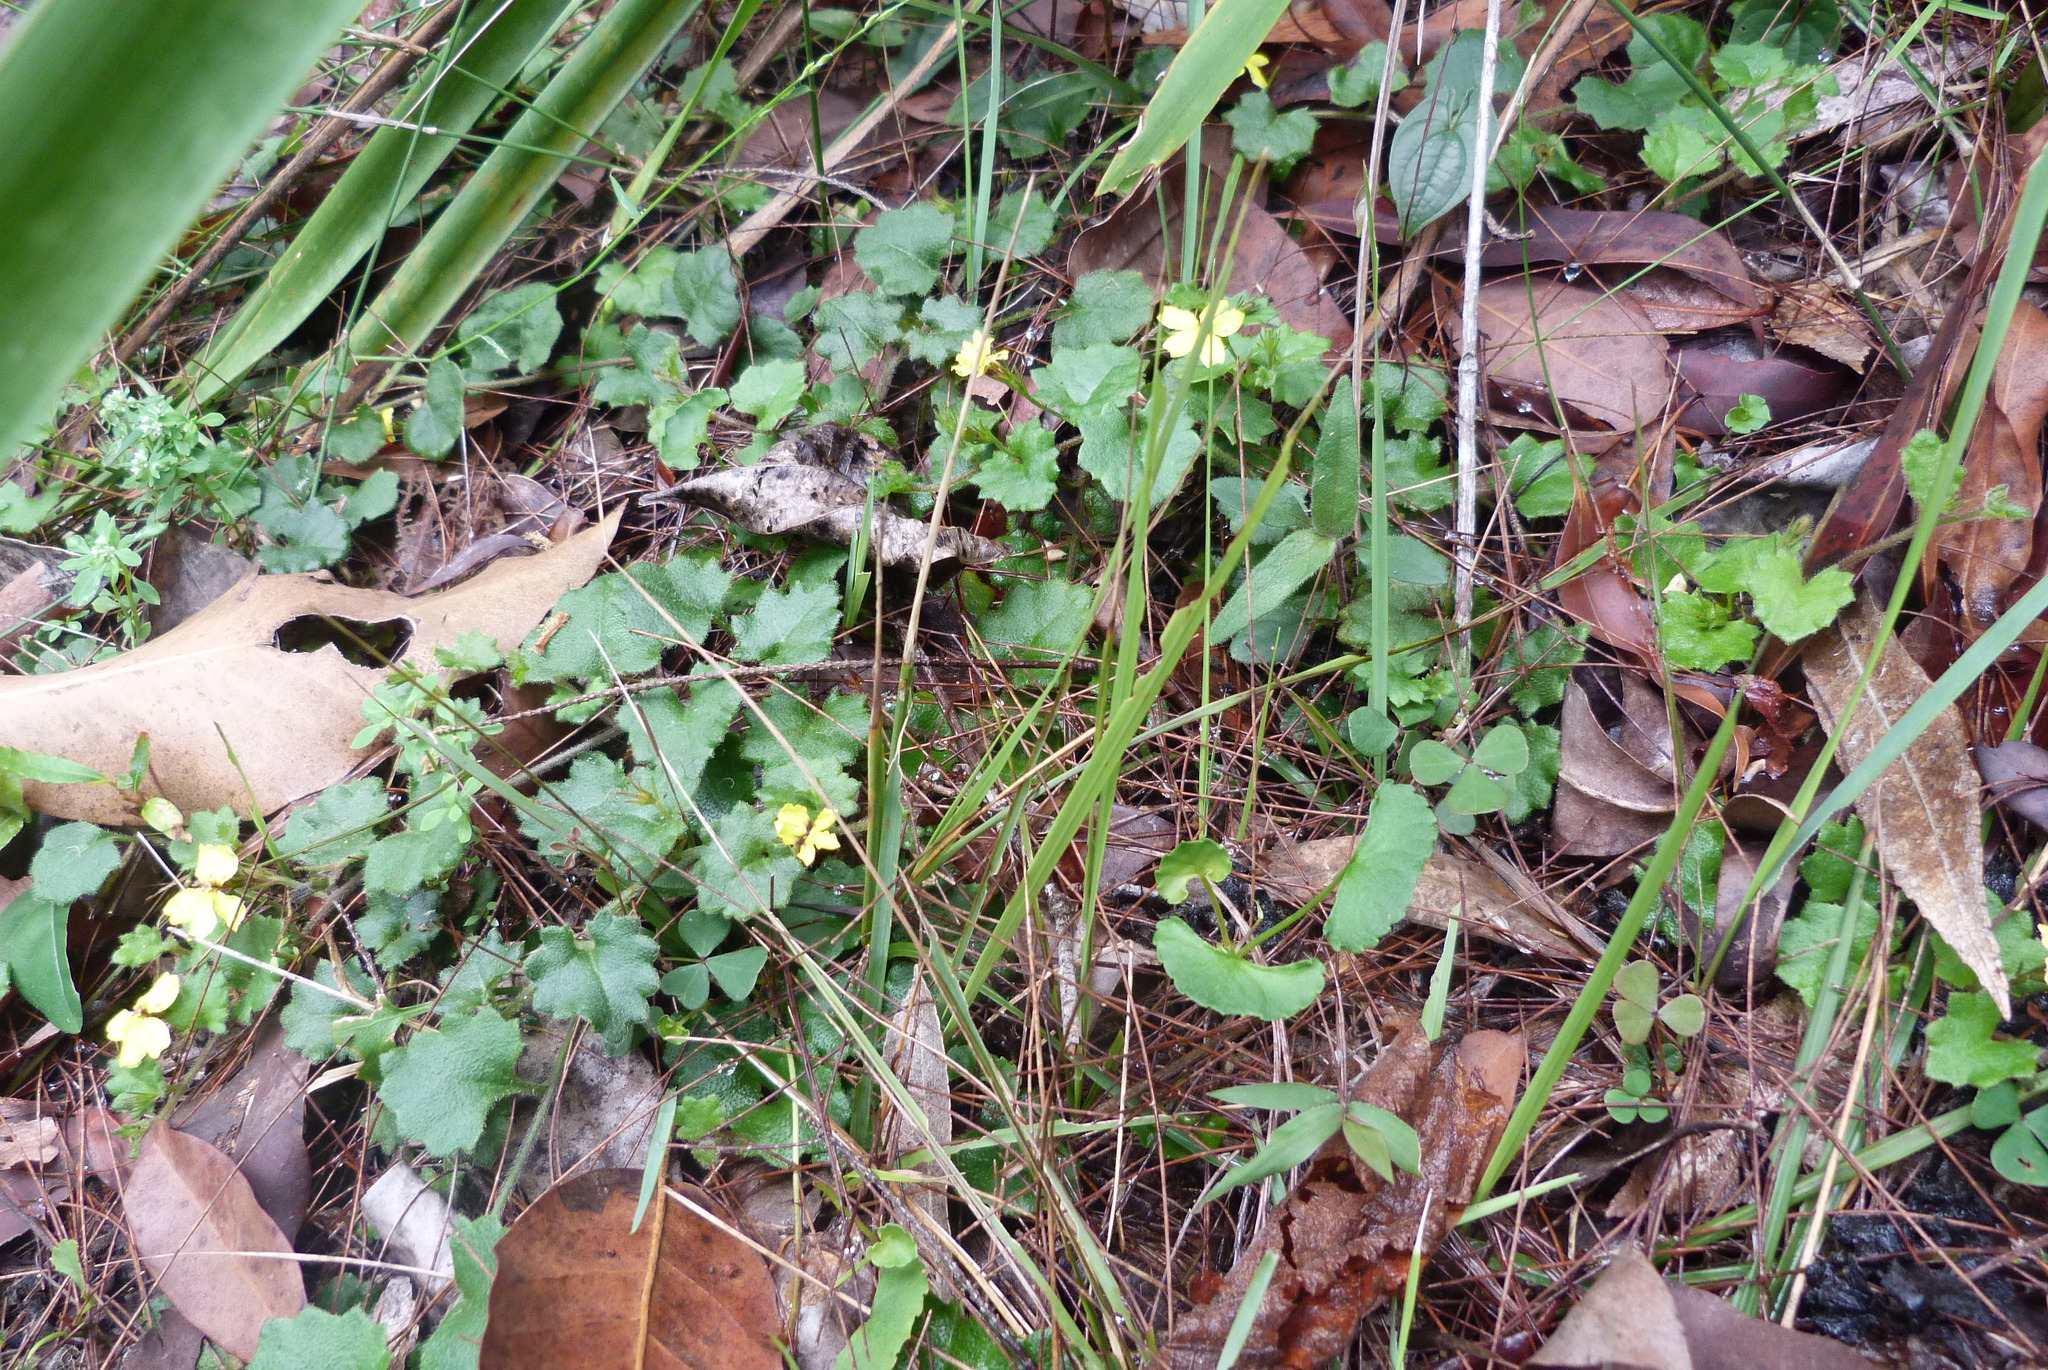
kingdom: Plantae
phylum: Tracheophyta
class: Magnoliopsida
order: Asterales
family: Goodeniaceae
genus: Goodenia
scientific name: Goodenia rotundifolia
